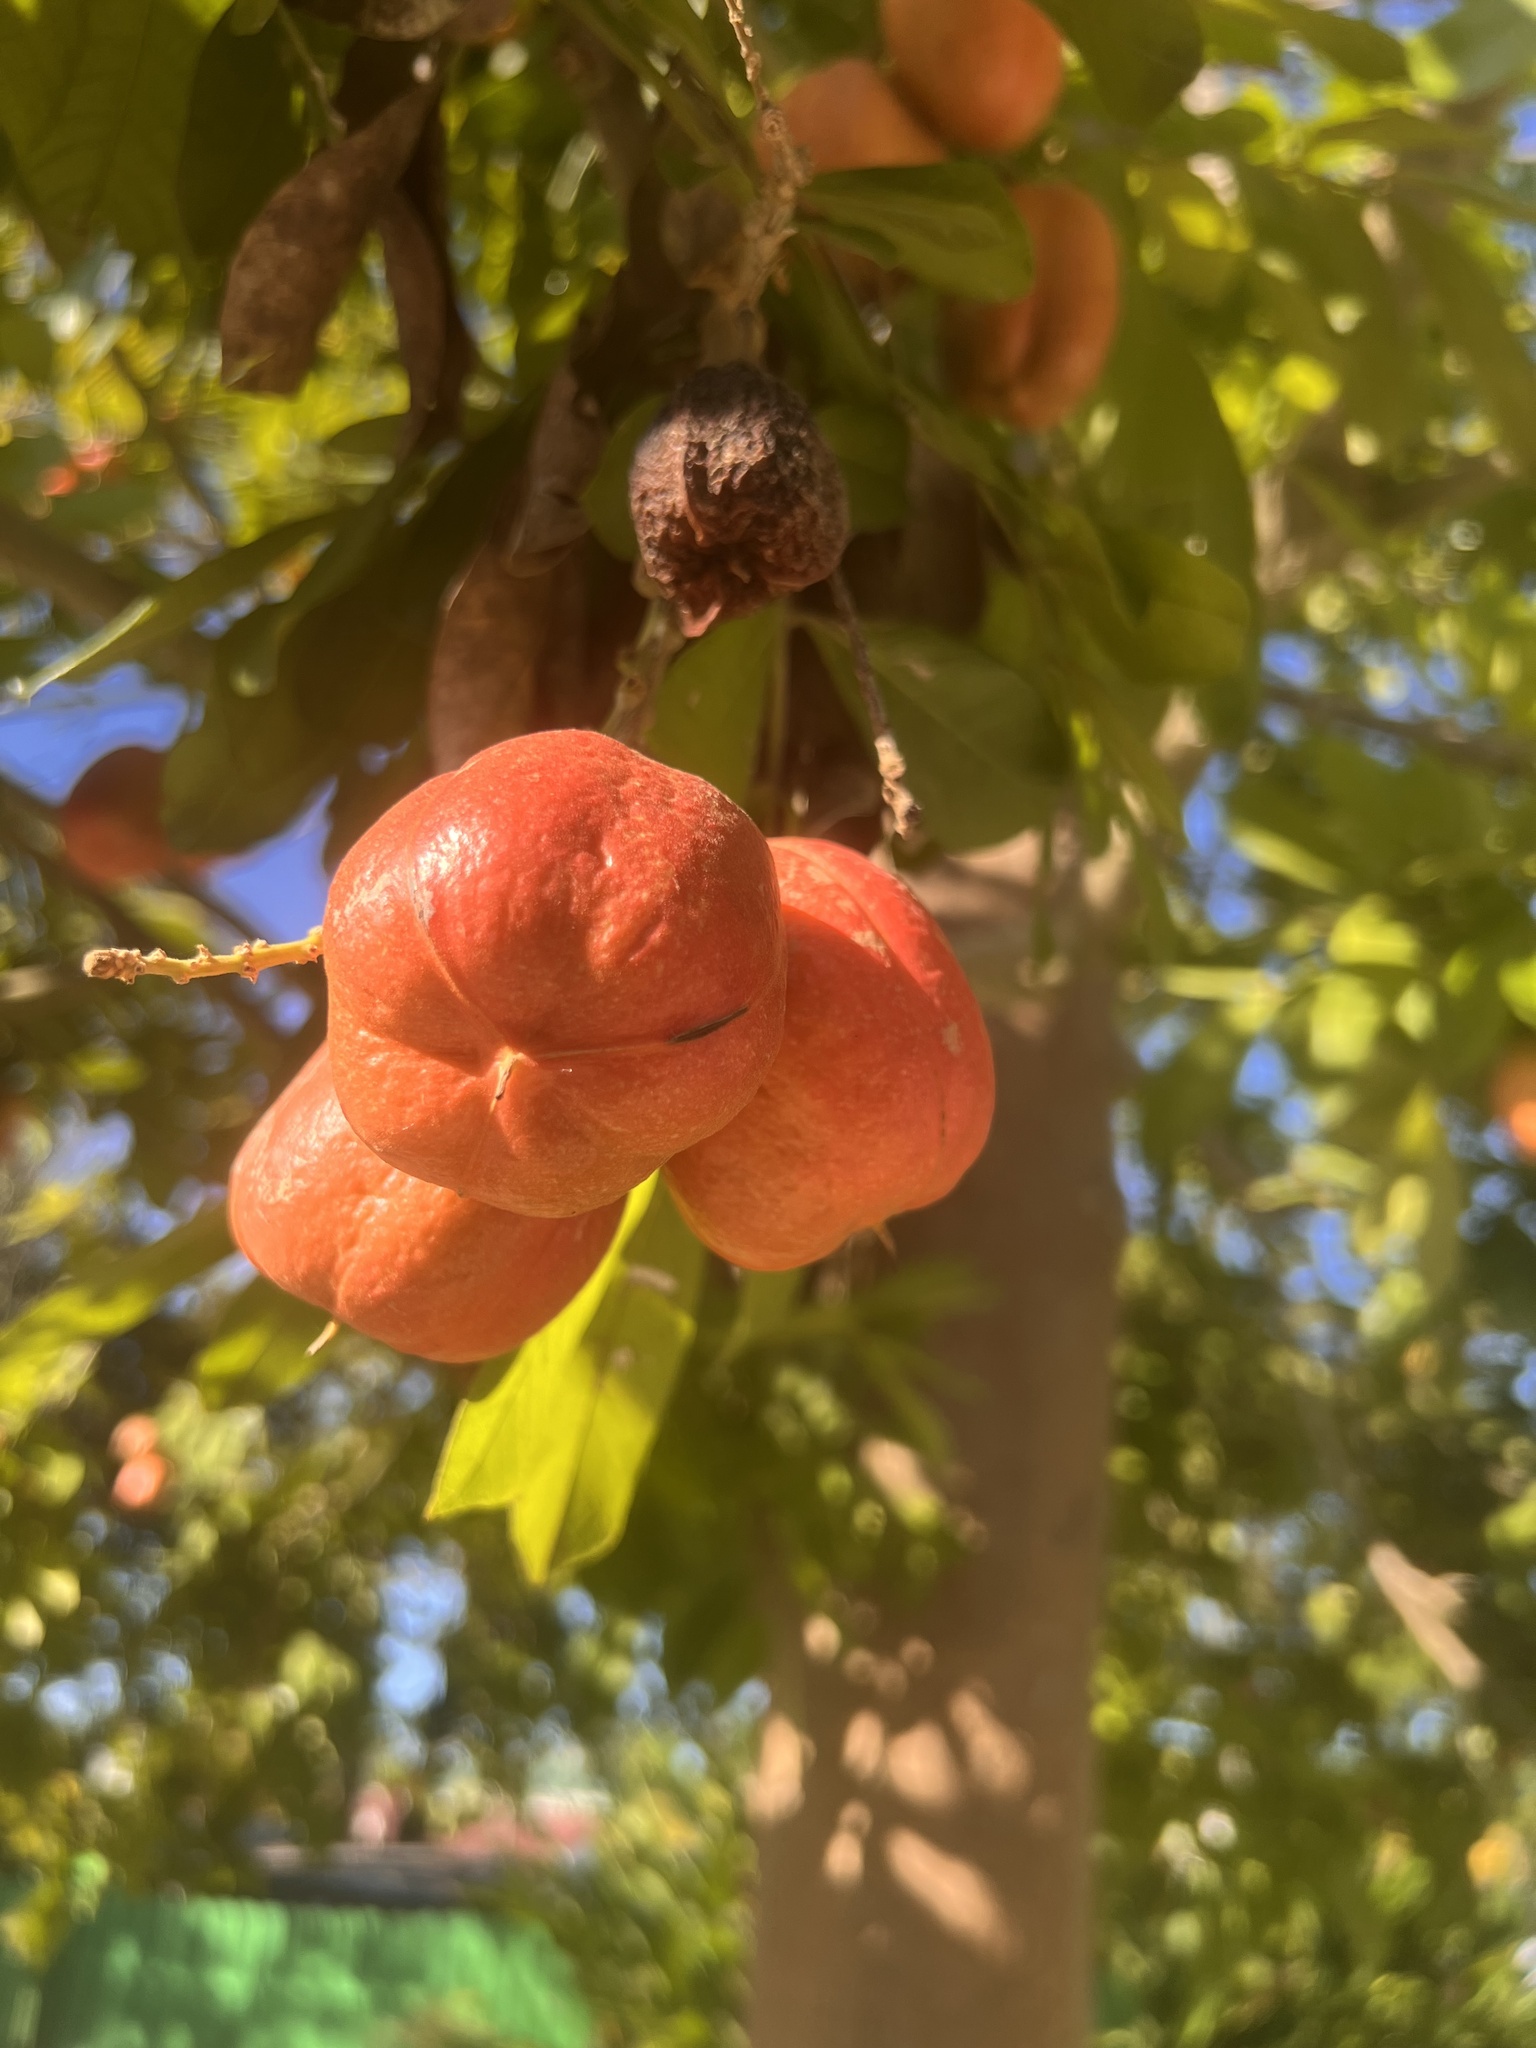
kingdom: Plantae
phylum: Tracheophyta
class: Magnoliopsida
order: Sapindales
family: Sapindaceae
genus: Blighia
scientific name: Blighia sapida
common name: Akee
